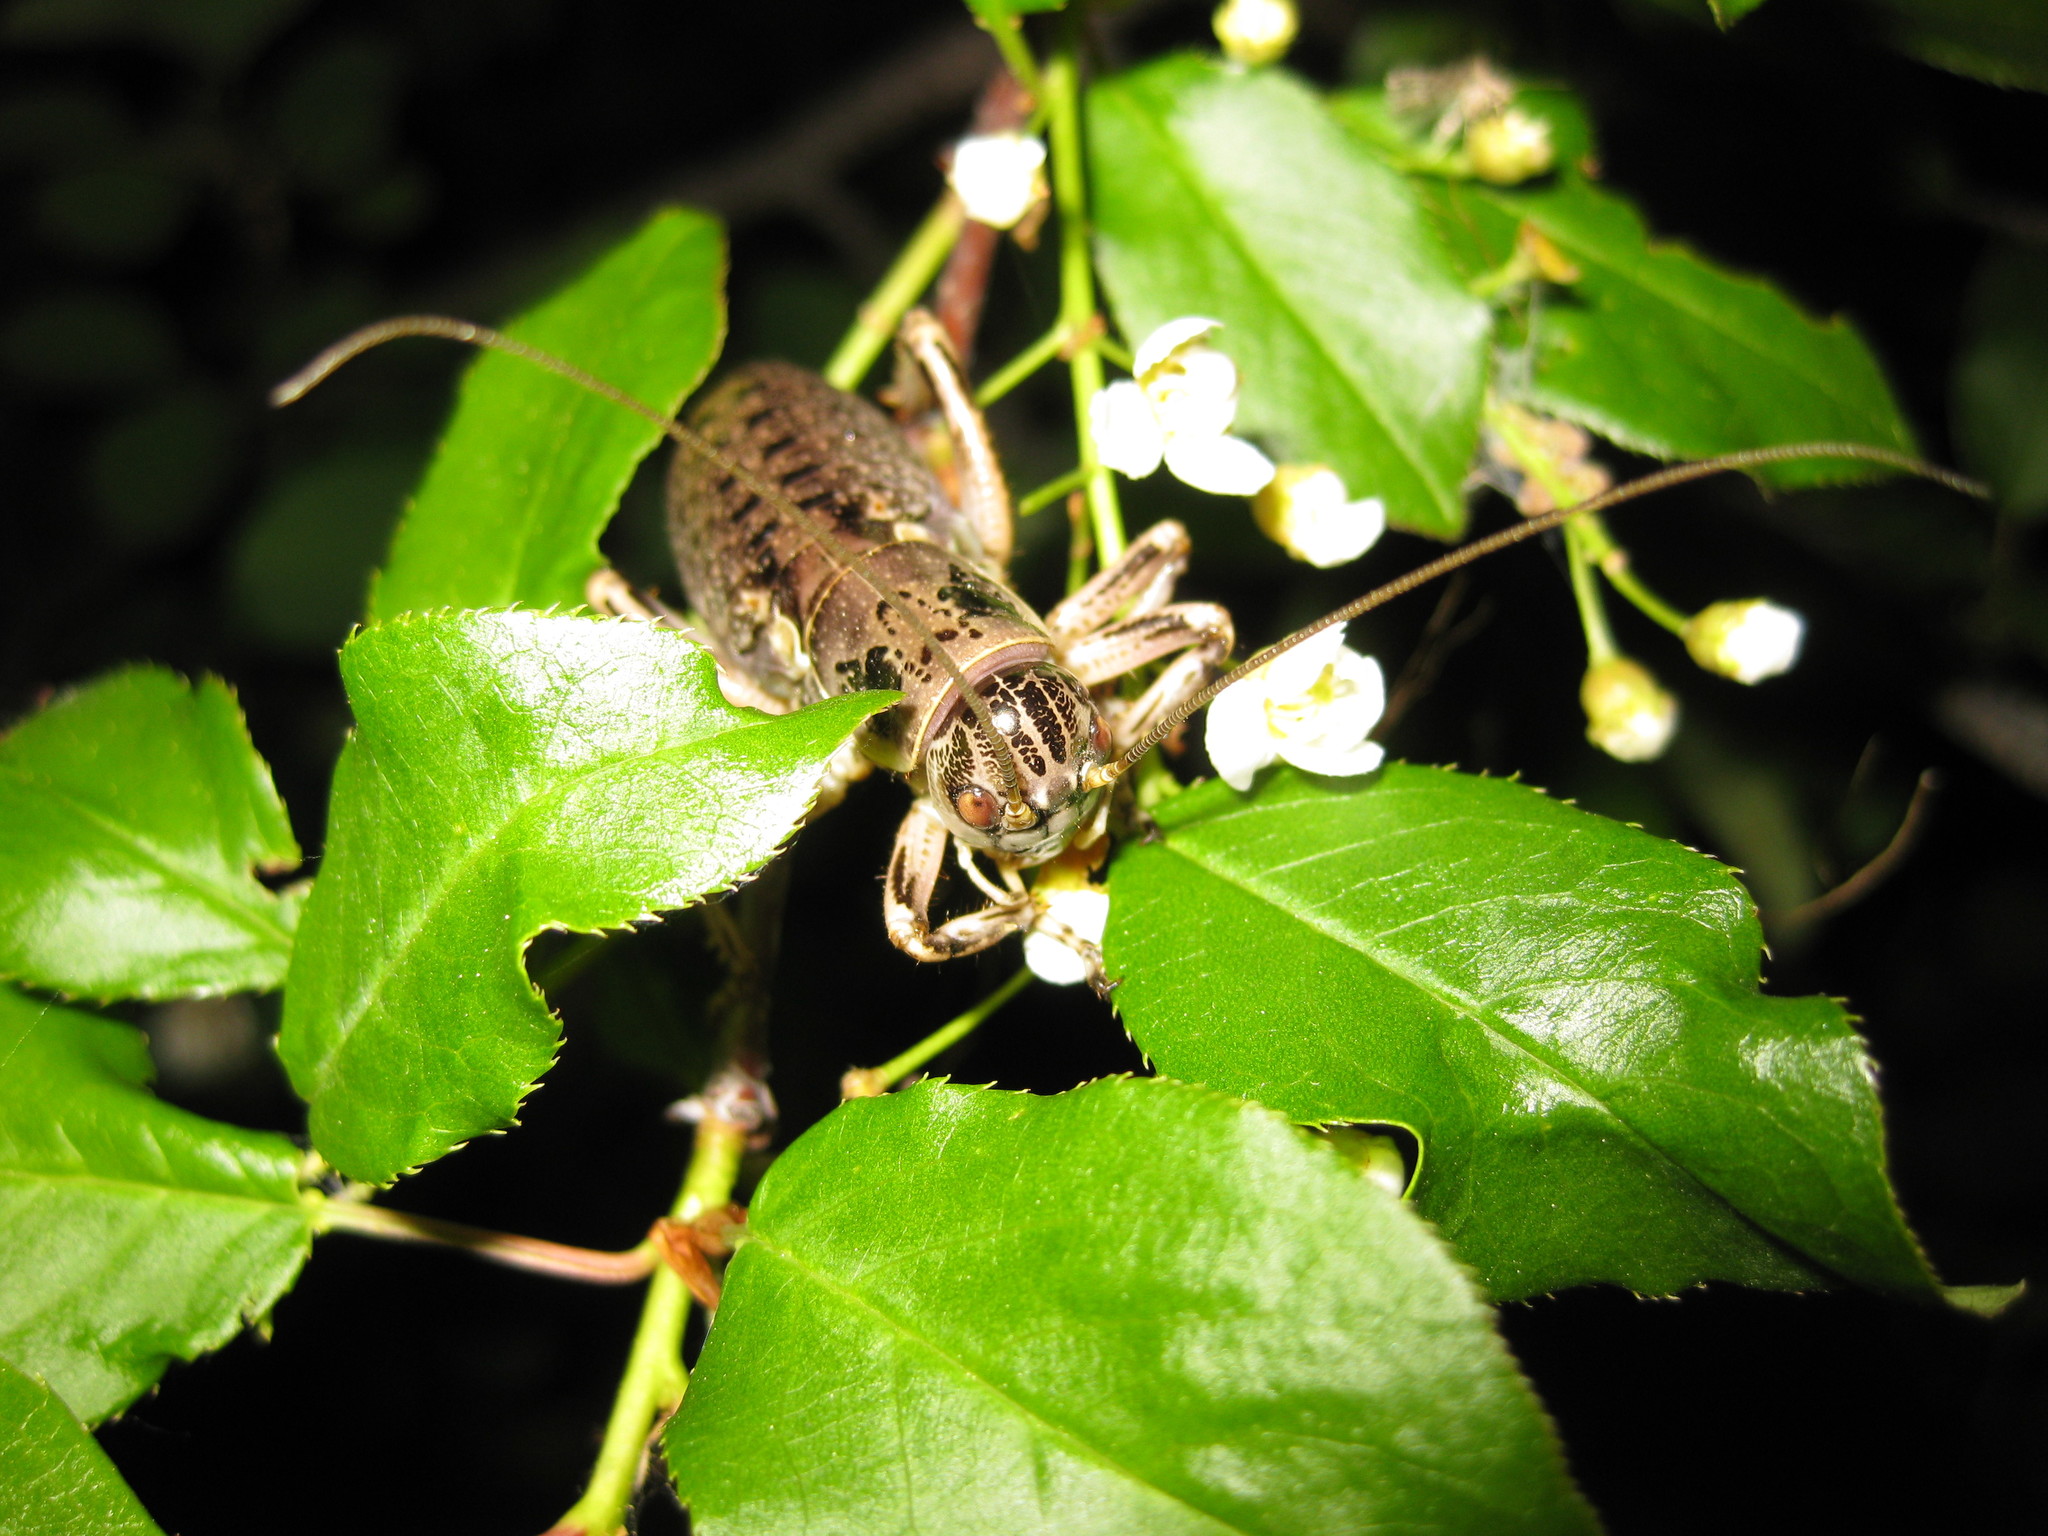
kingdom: Animalia
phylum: Arthropoda
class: Insecta
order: Orthoptera
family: Prophalangopsidae
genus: Cyphoderris
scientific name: Cyphoderris monstrosa
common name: Great grig
